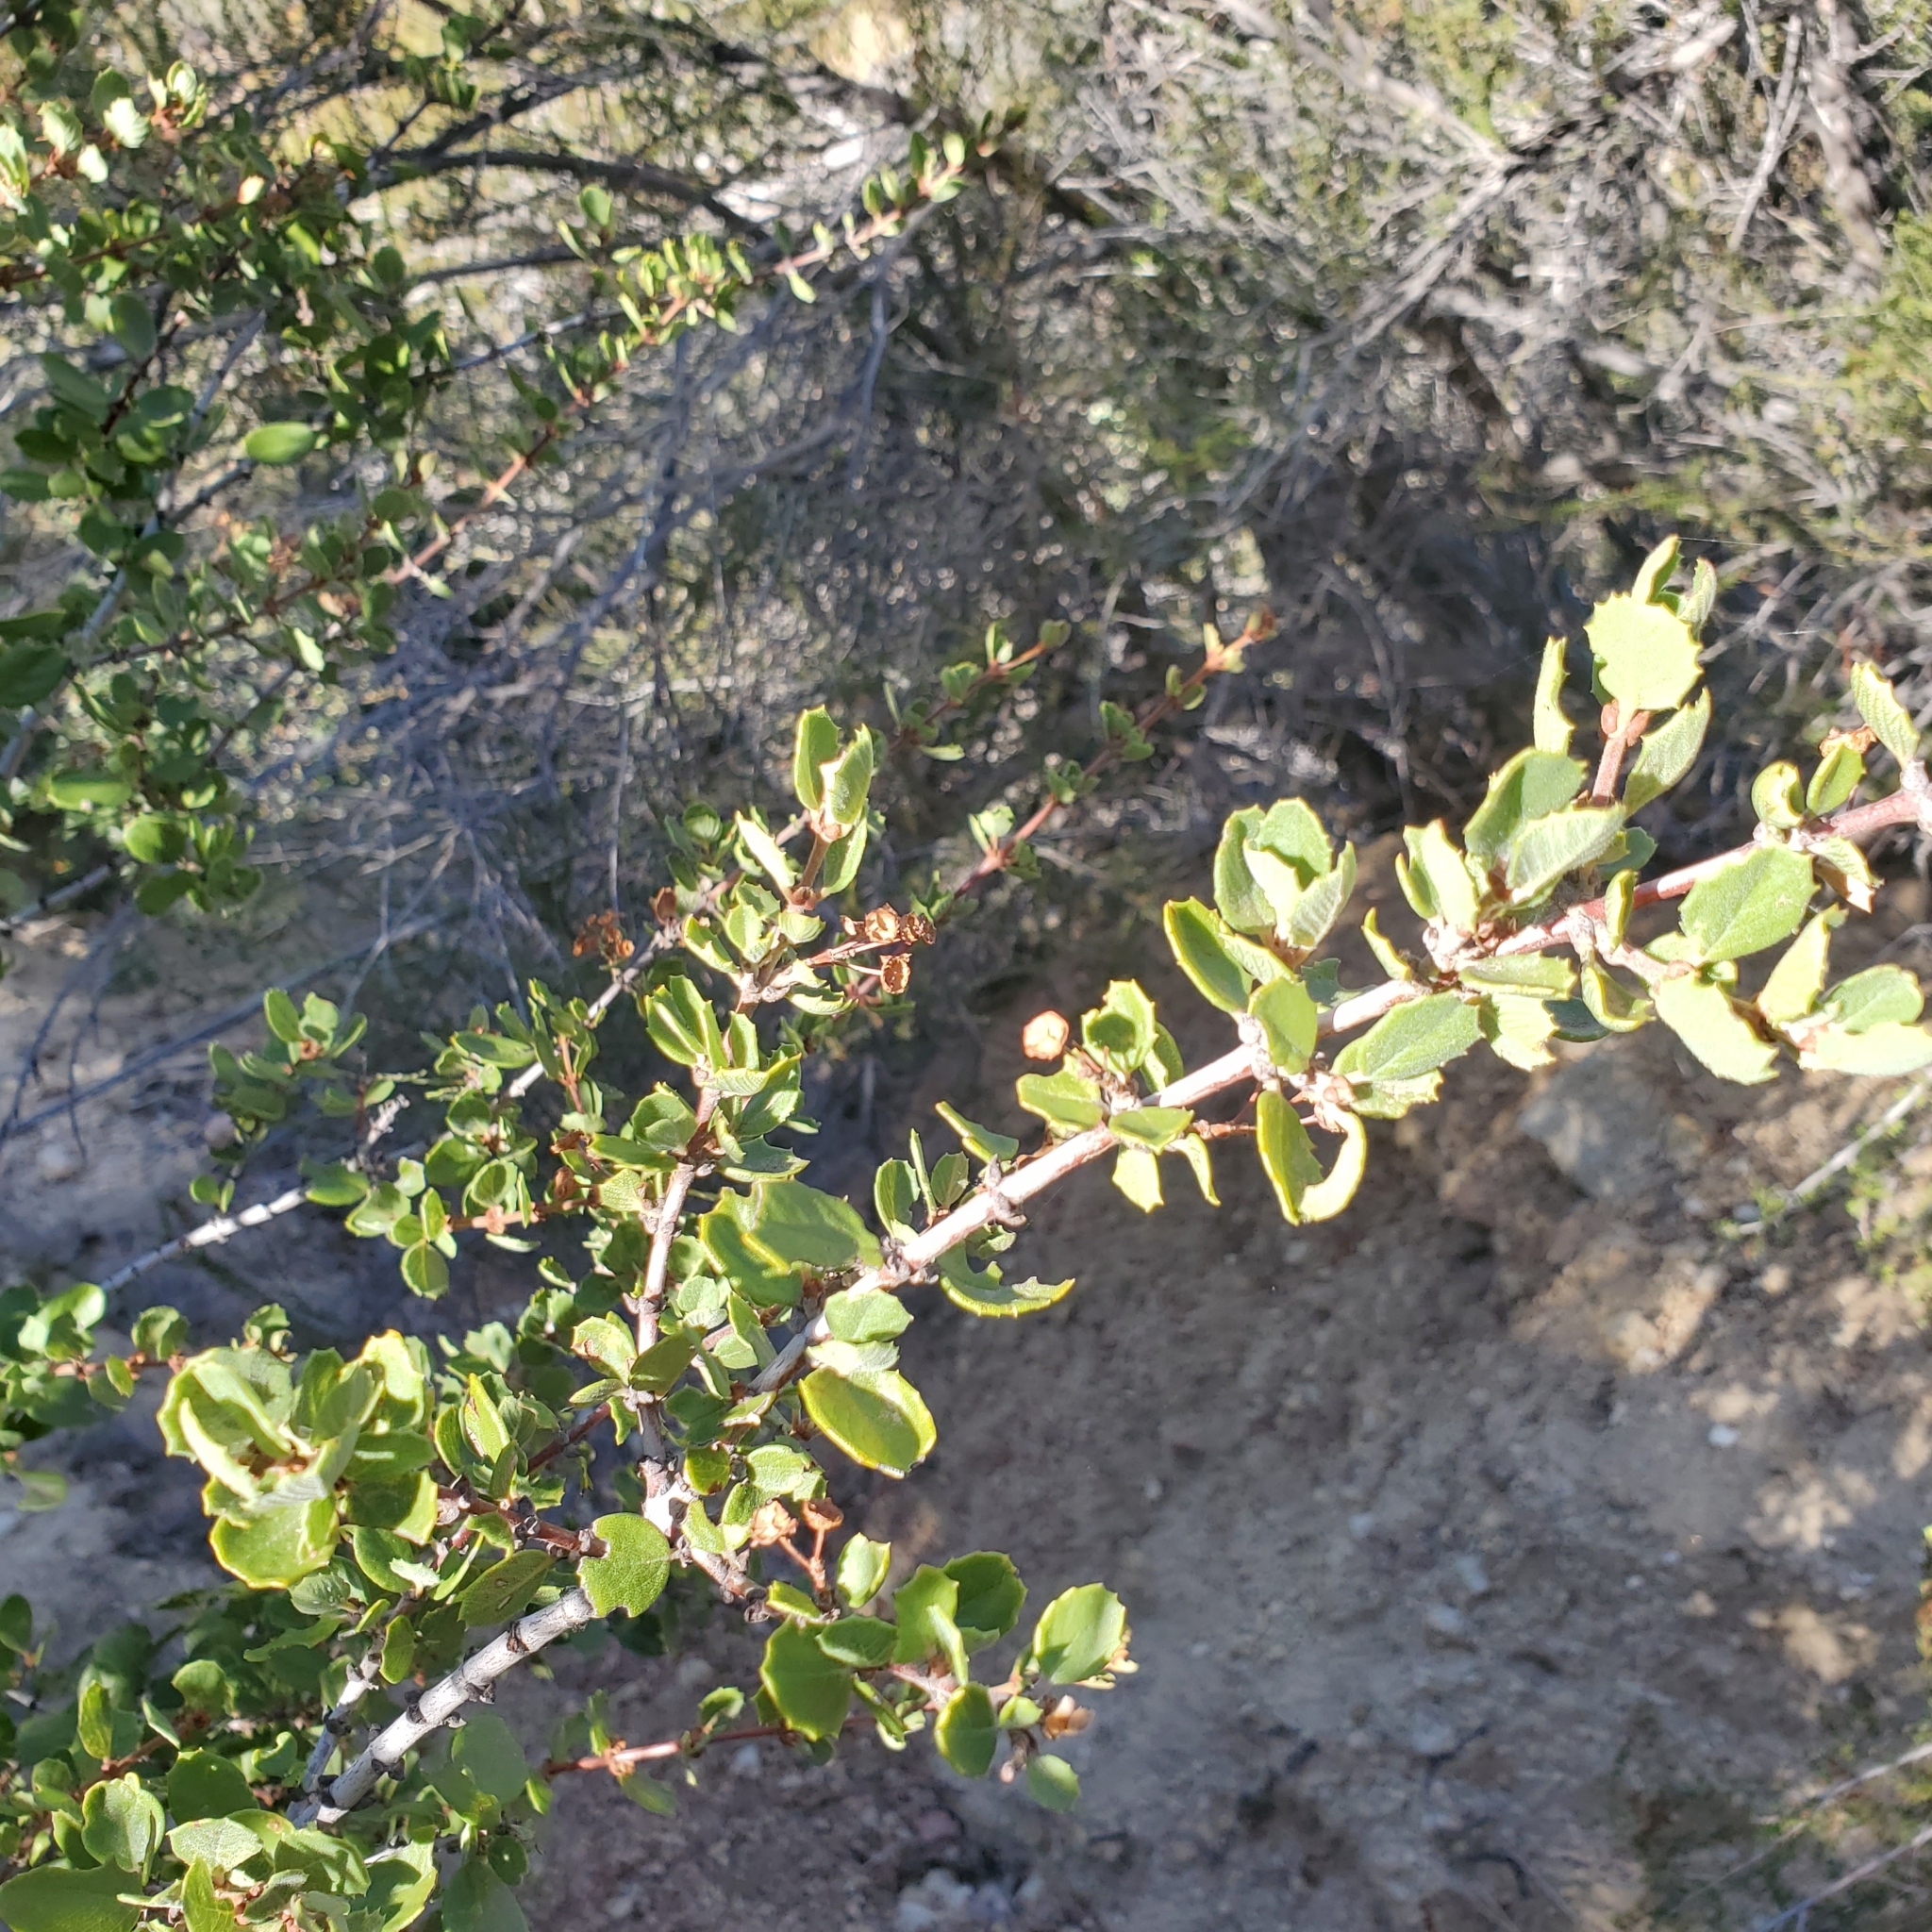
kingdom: Plantae
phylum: Tracheophyta
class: Magnoliopsida
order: Rosales
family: Rhamnaceae
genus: Ceanothus
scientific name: Ceanothus perplexans
